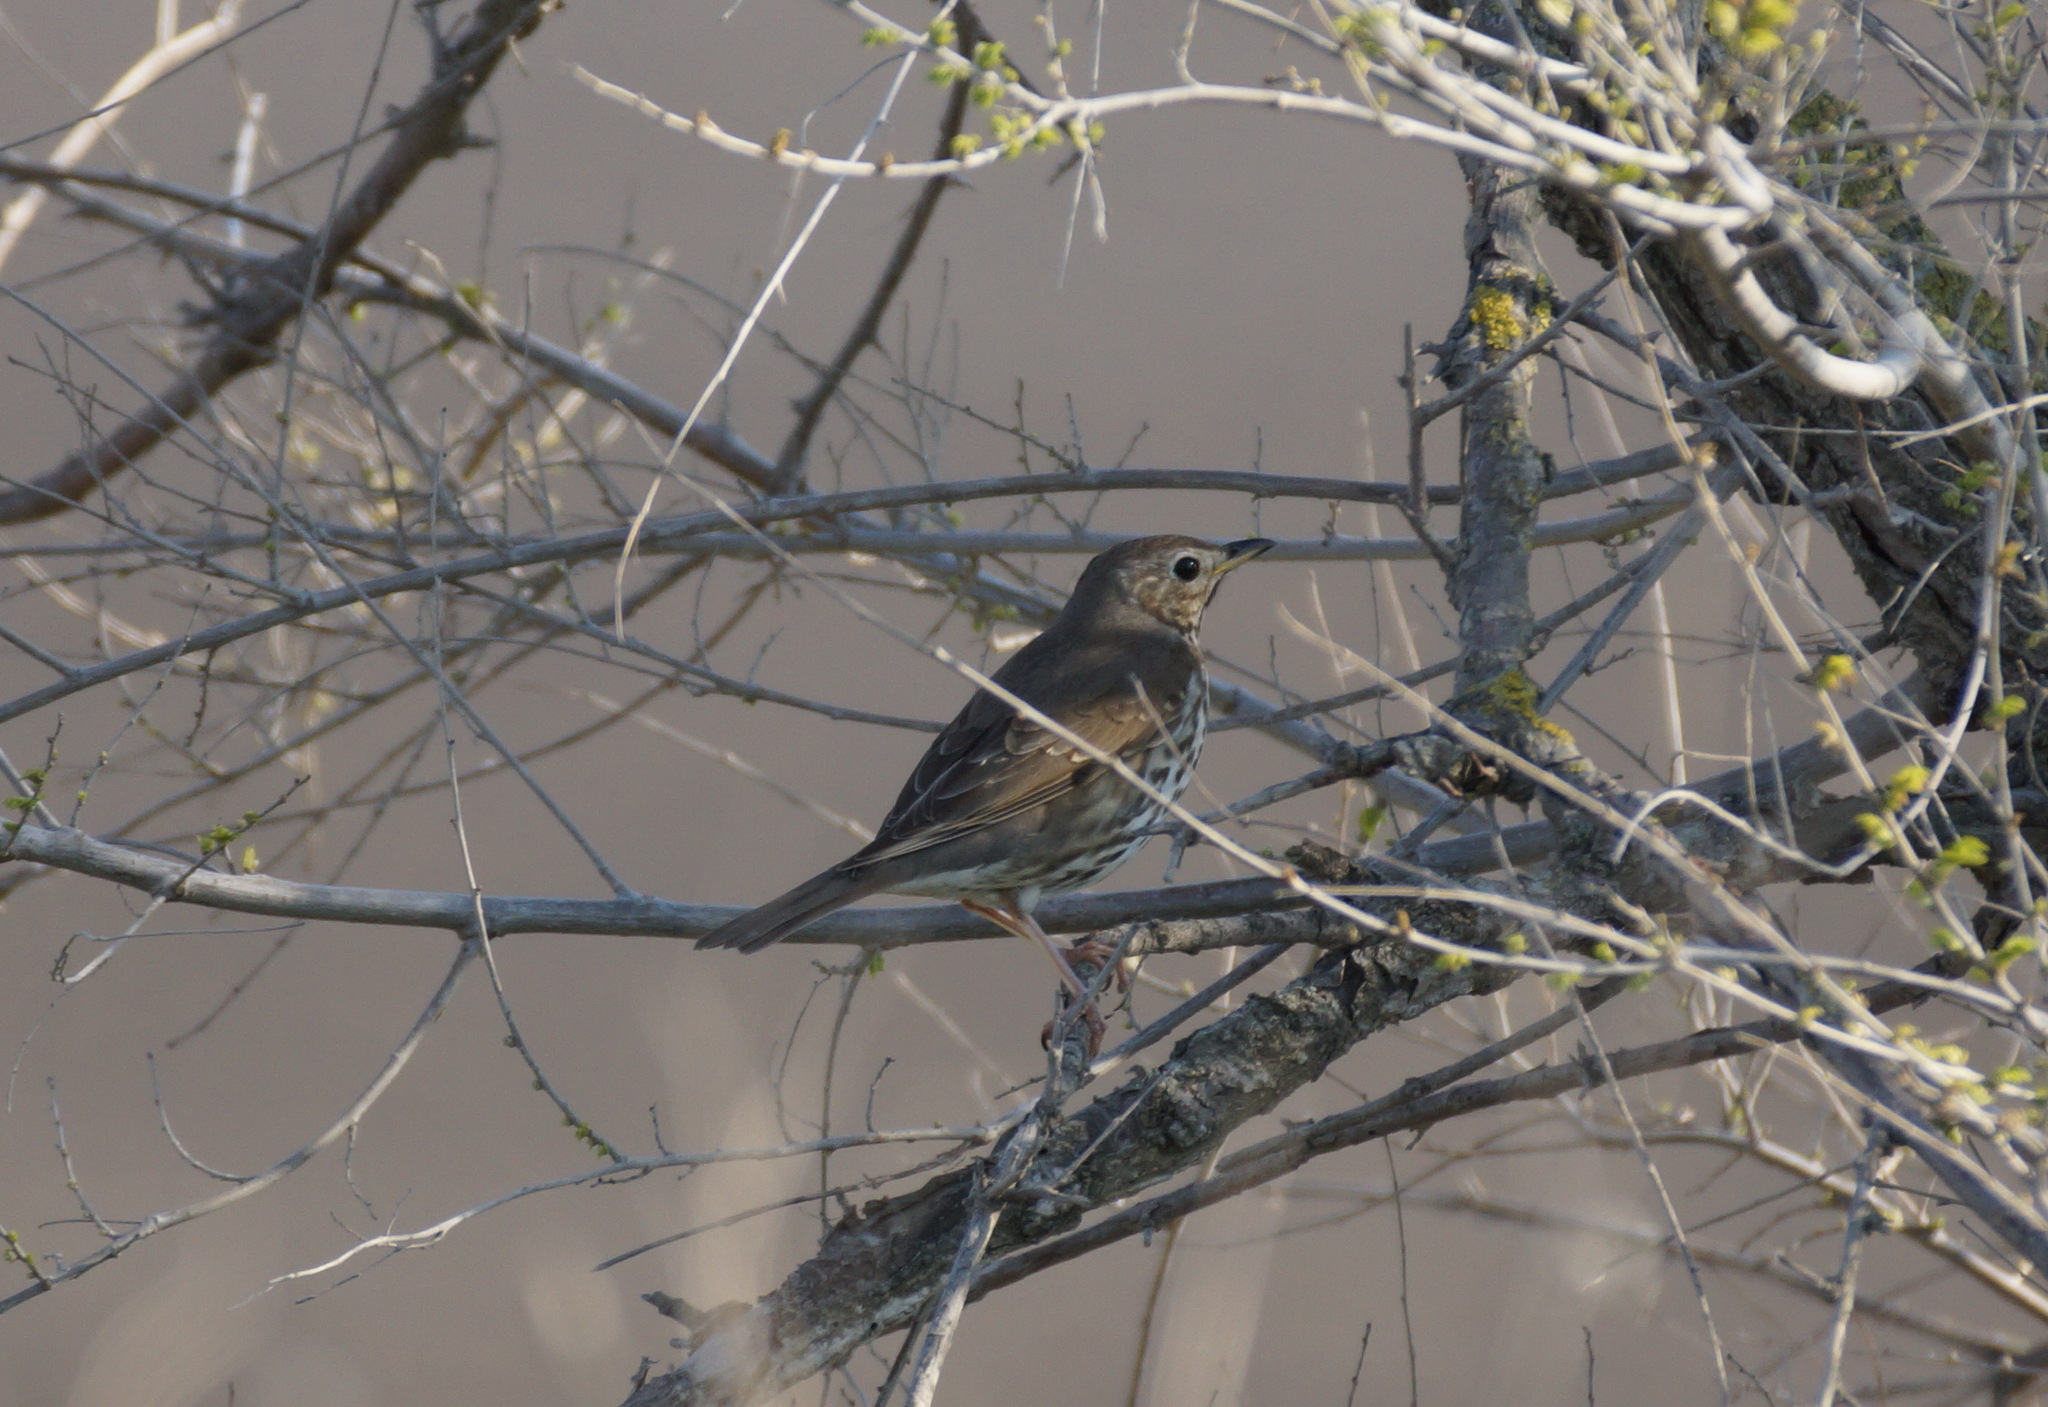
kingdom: Animalia
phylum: Chordata
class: Aves
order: Passeriformes
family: Turdidae
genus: Turdus
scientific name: Turdus philomelos
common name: Song thrush
